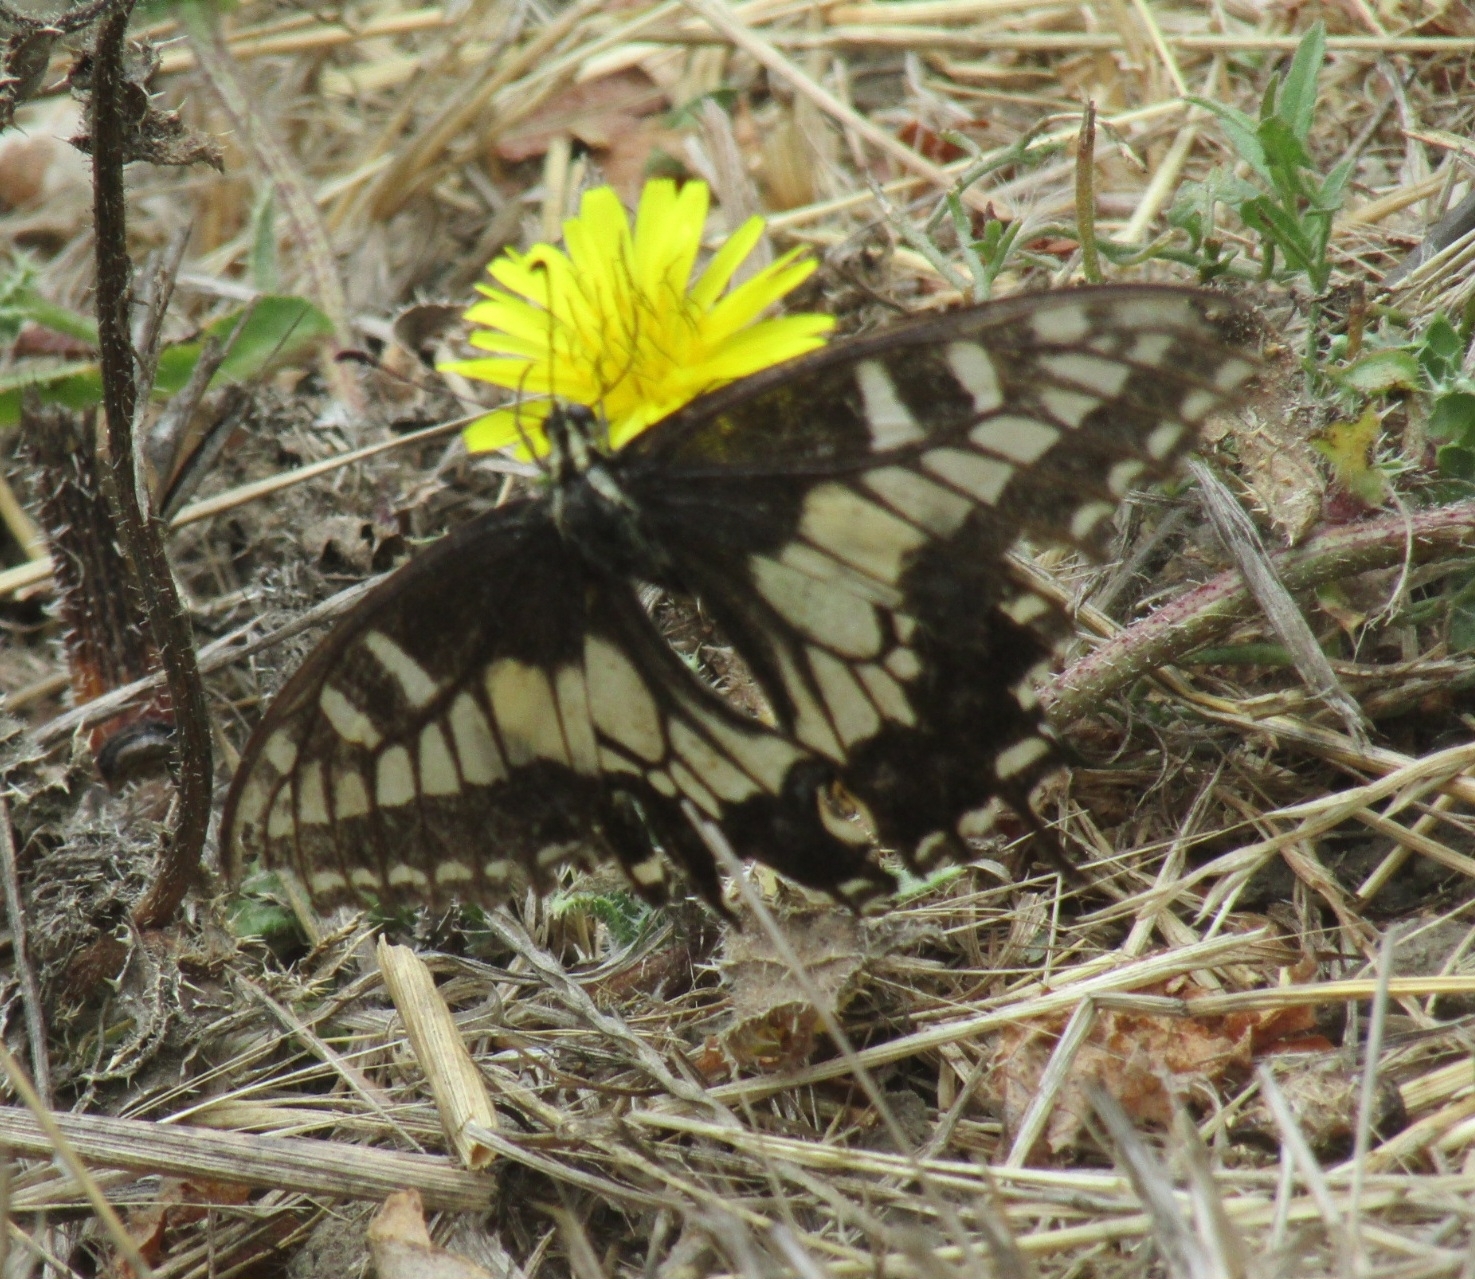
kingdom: Animalia
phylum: Arthropoda
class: Insecta
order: Lepidoptera
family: Papilionidae
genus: Papilio
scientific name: Papilio zelicaon
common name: Anise swallowtail
